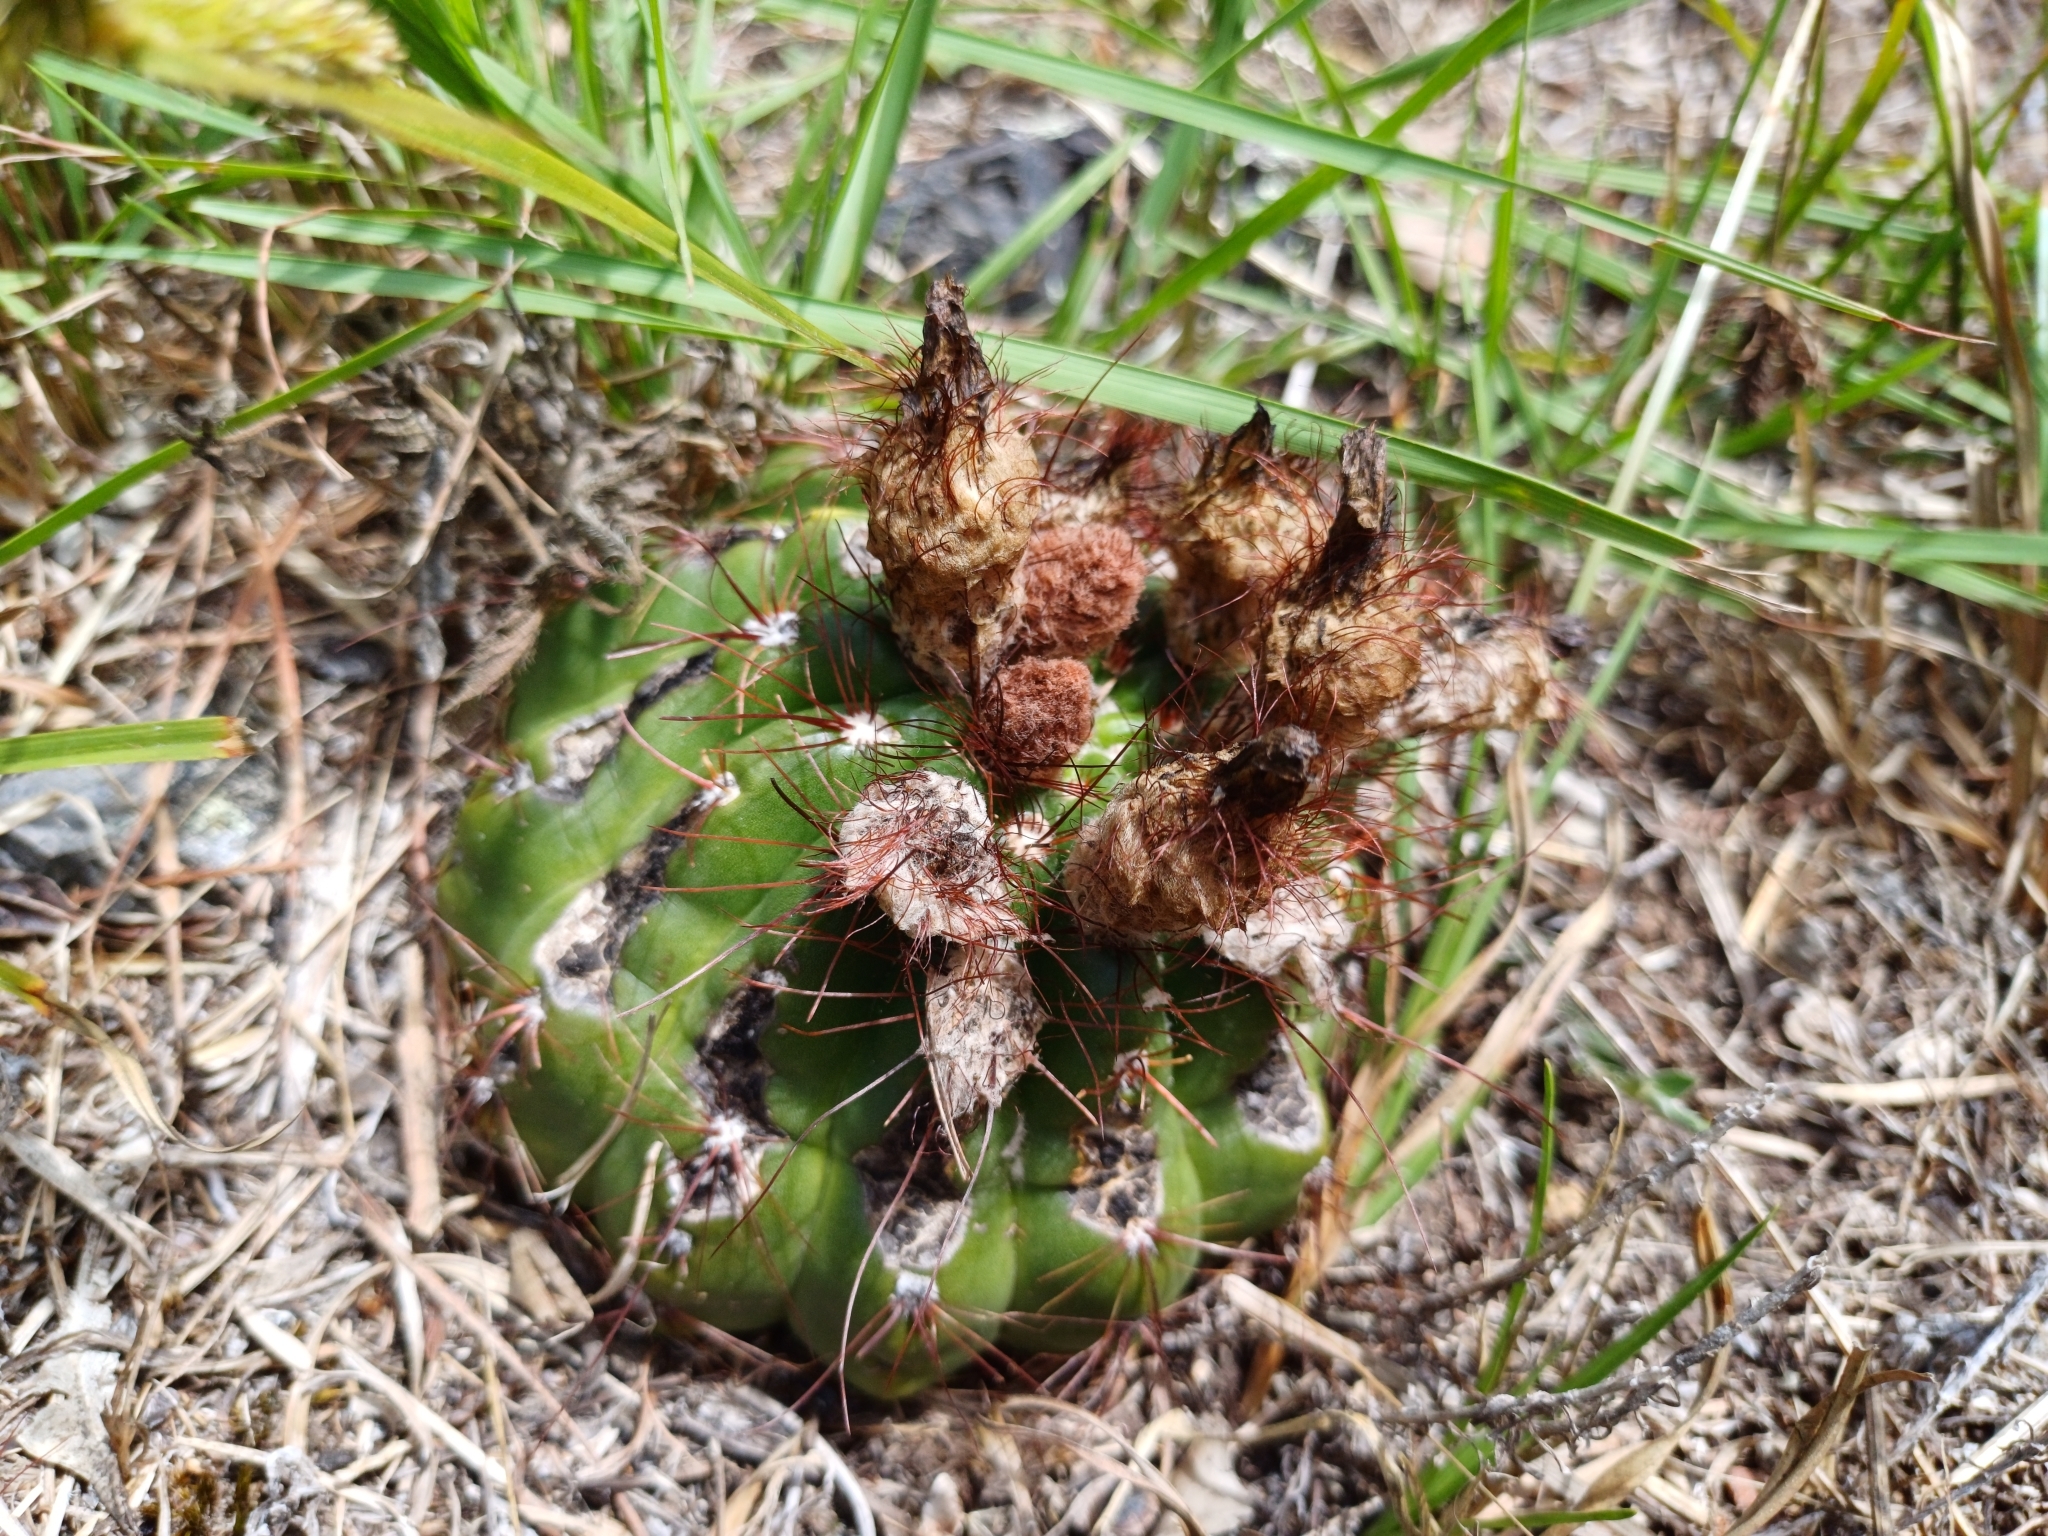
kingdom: Plantae
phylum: Tracheophyta
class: Magnoliopsida
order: Caryophyllales
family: Cactaceae
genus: Parodia
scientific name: Parodia ottonis
